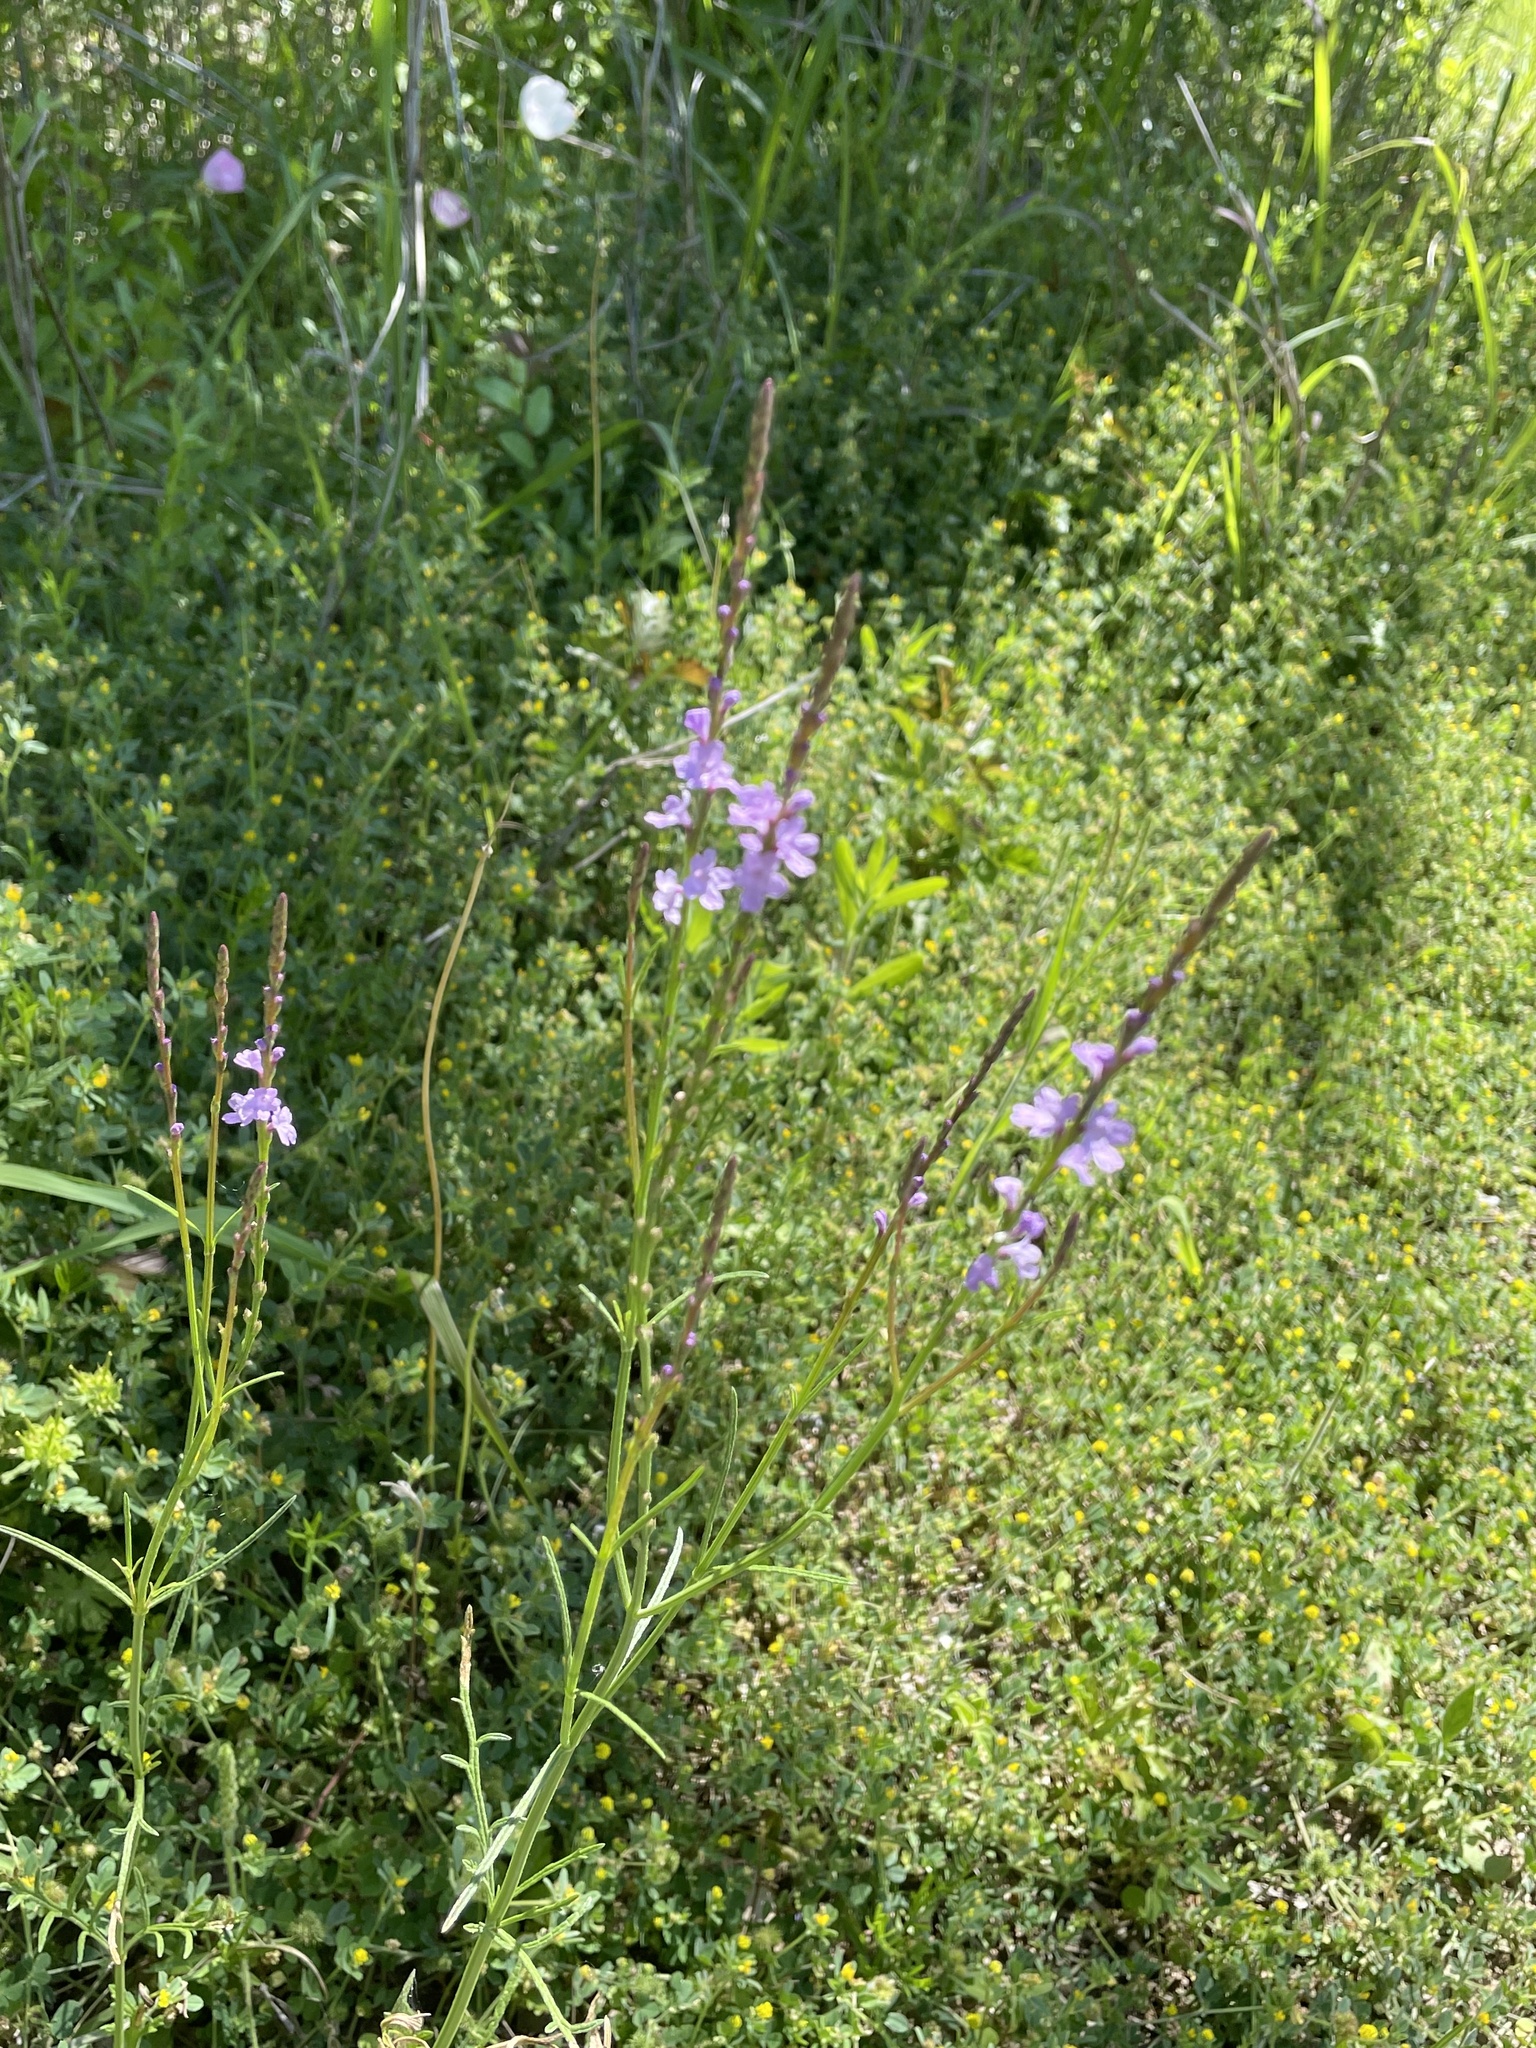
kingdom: Plantae
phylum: Tracheophyta
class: Magnoliopsida
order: Lamiales
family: Verbenaceae
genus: Verbena
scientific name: Verbena halei
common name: Texas vervain
